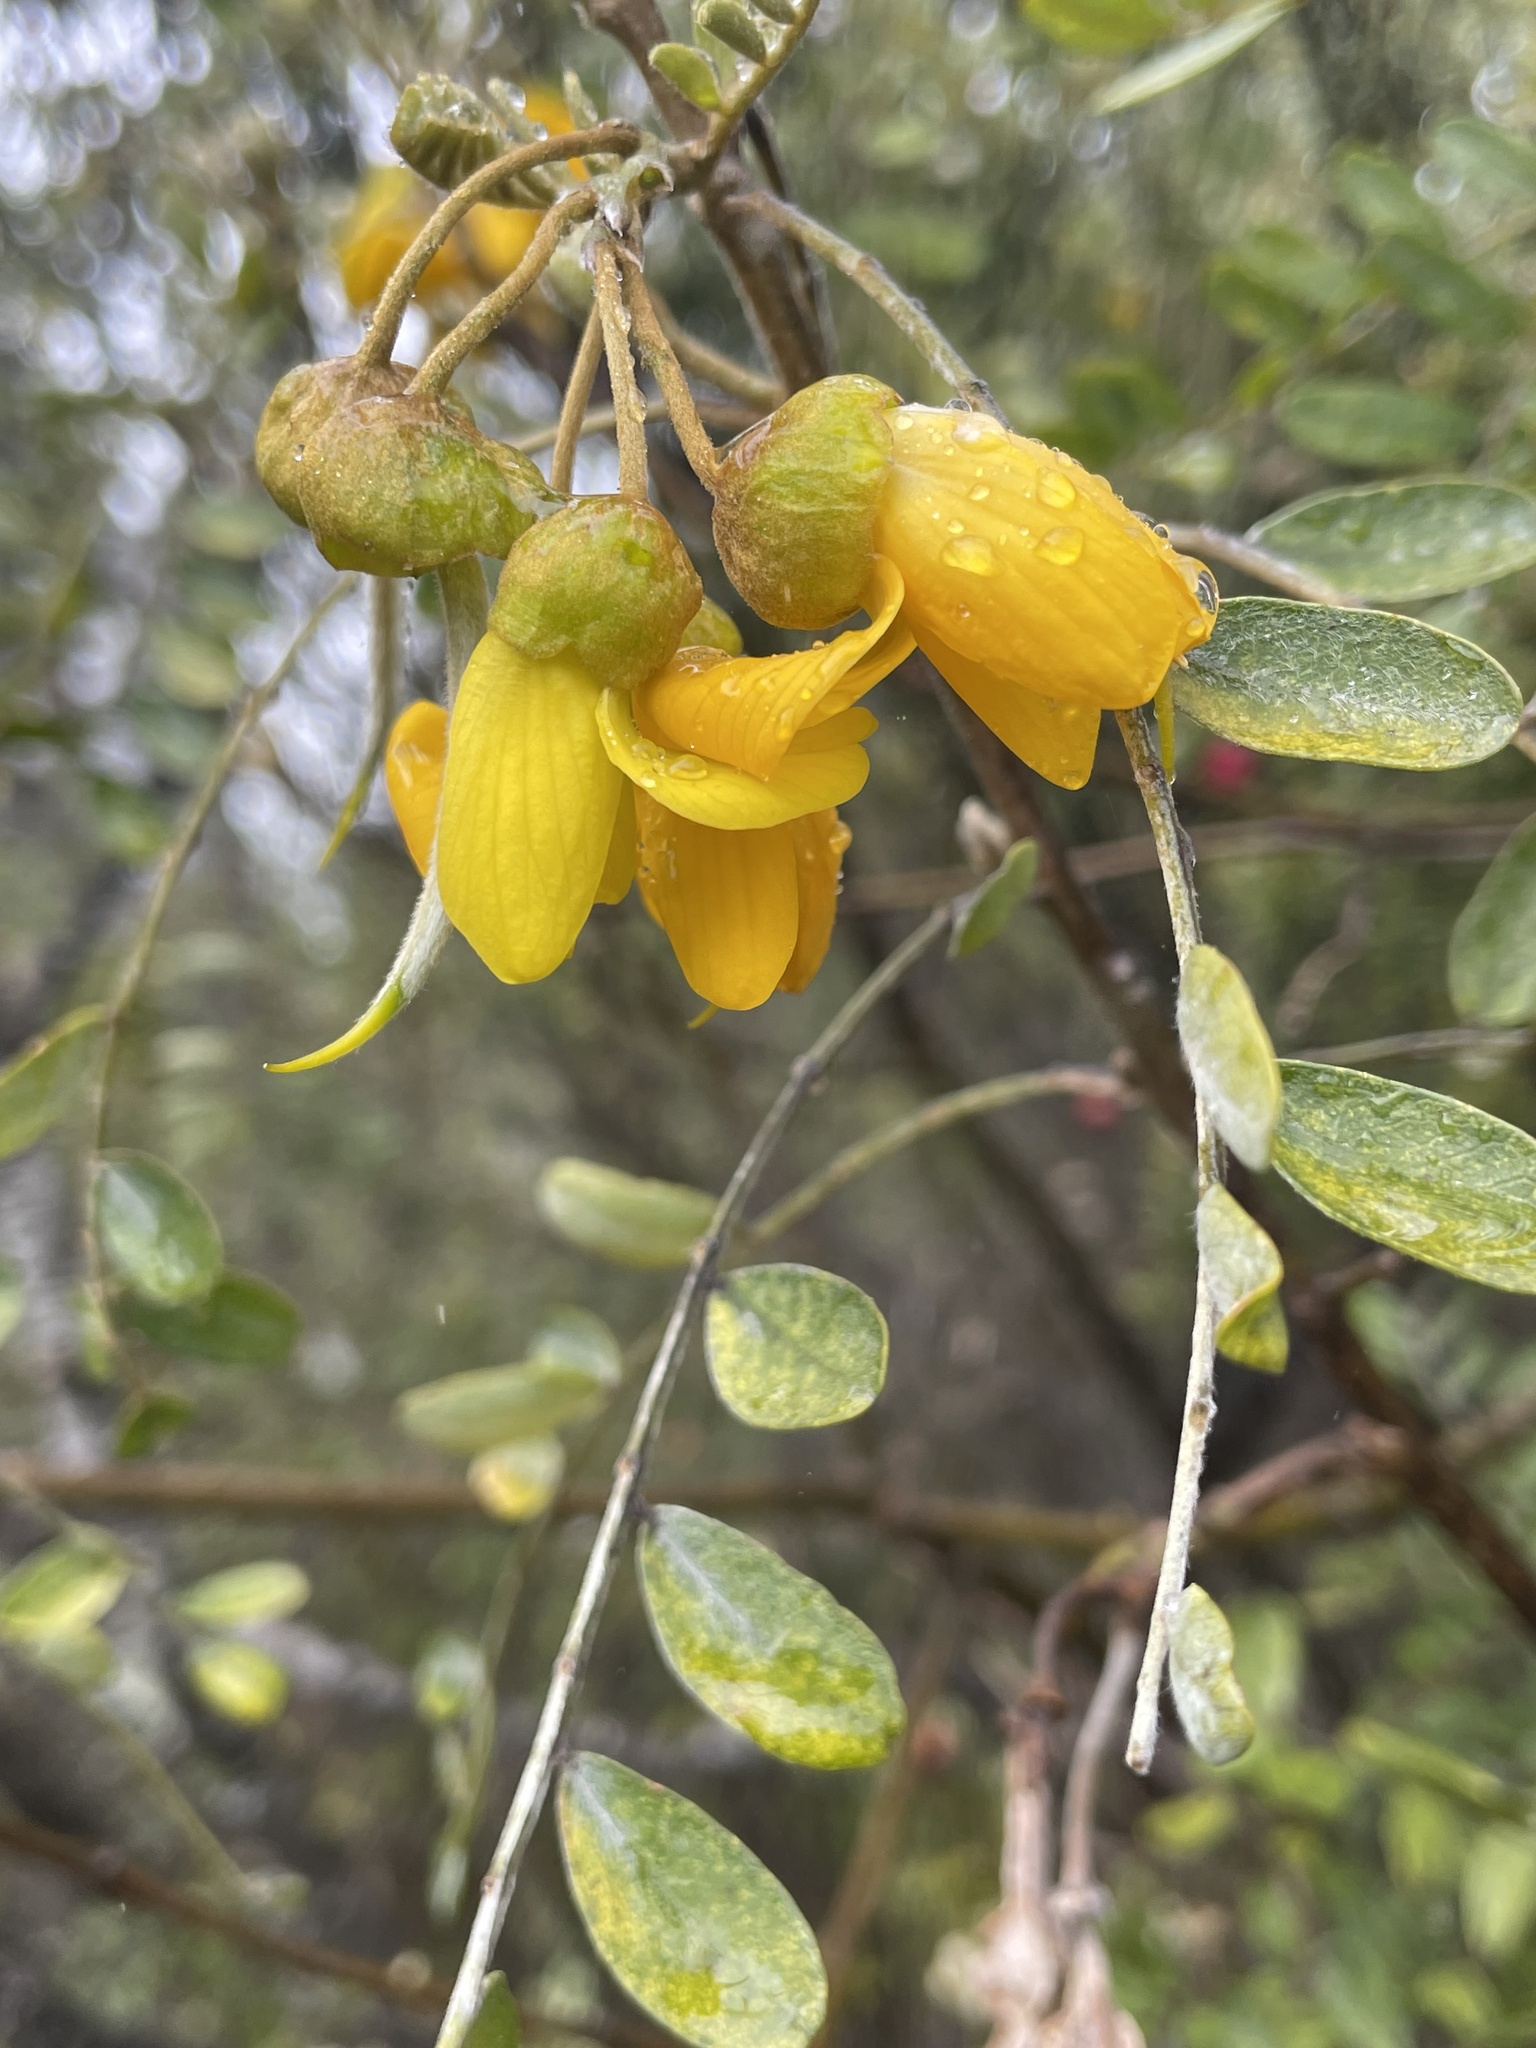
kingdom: Plantae
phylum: Tracheophyta
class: Magnoliopsida
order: Fabales
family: Fabaceae
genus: Sophora
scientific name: Sophora chrysophylla
